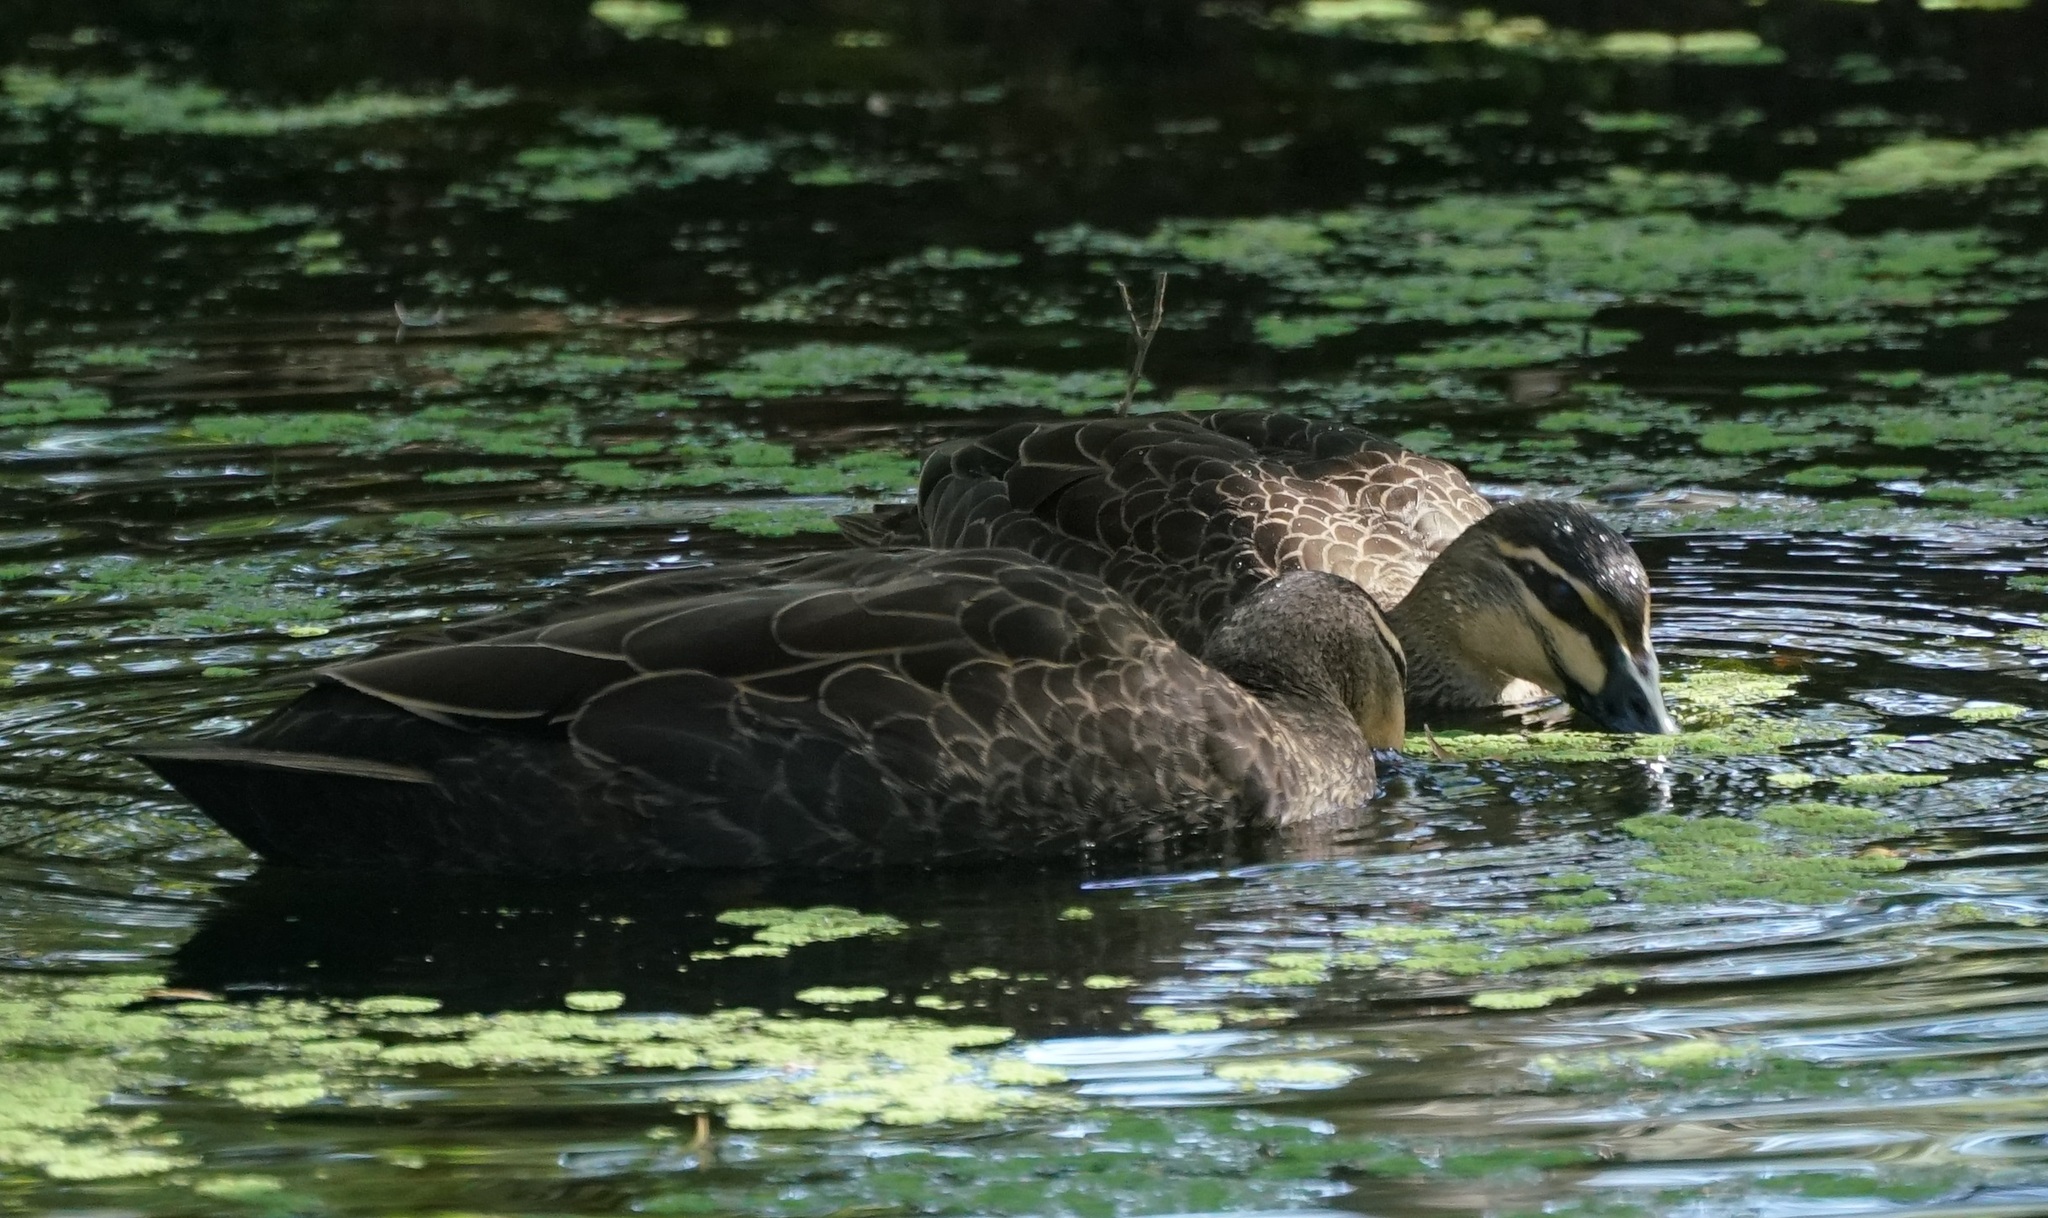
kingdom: Animalia
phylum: Chordata
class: Aves
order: Anseriformes
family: Anatidae
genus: Anas
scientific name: Anas superciliosa
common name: Pacific black duck
